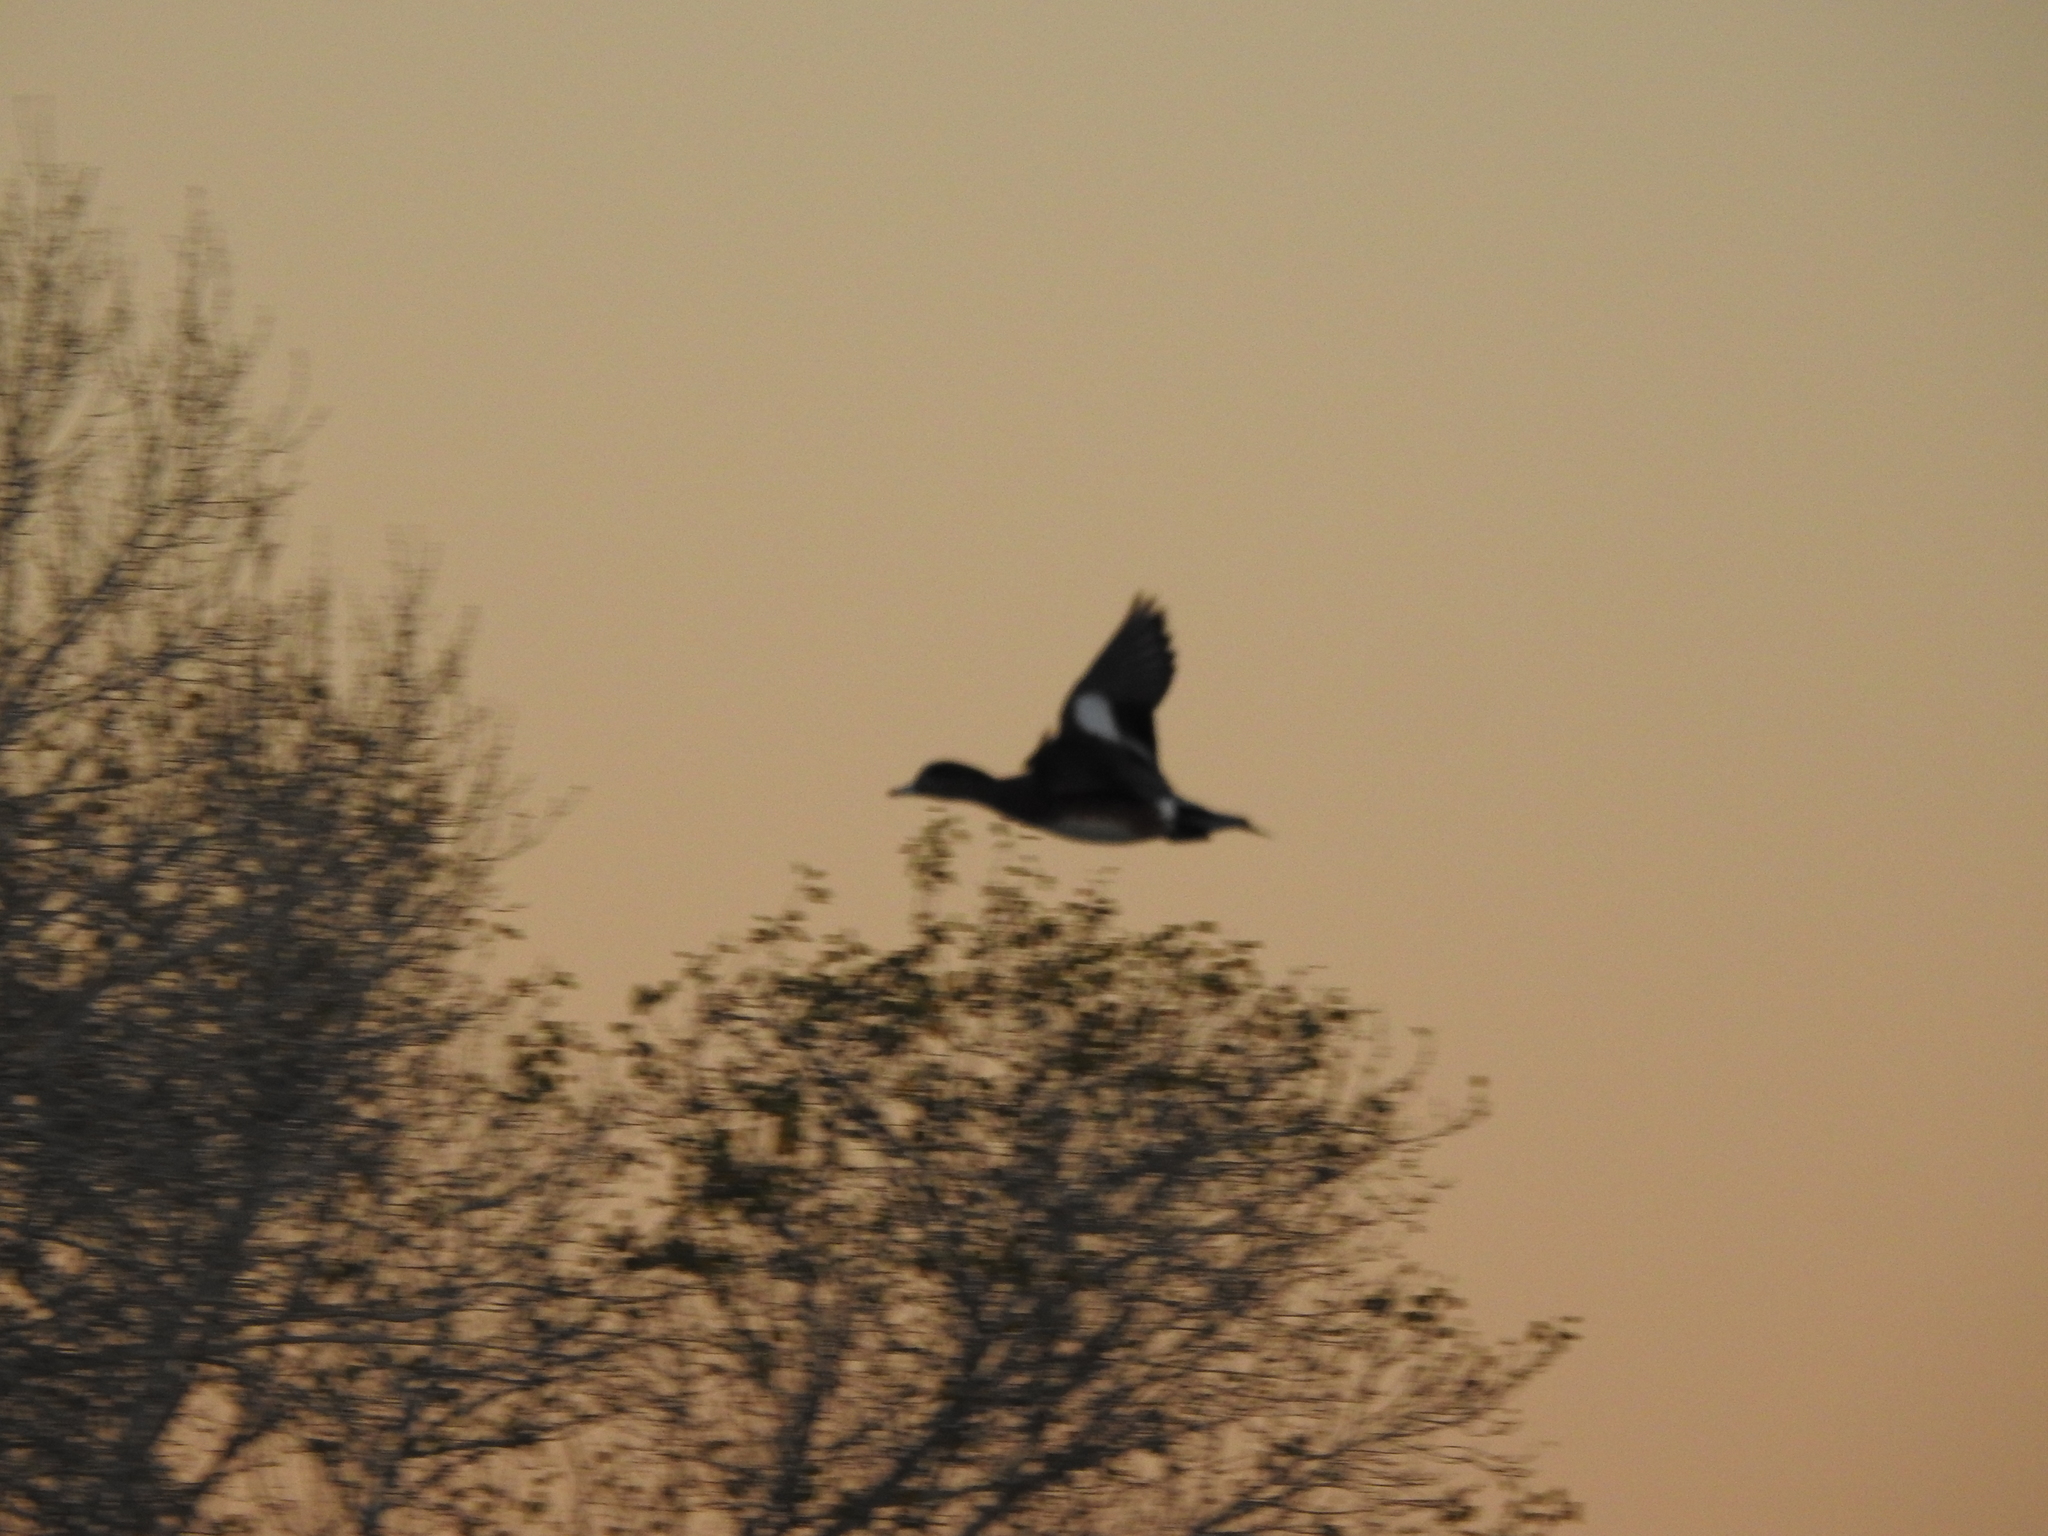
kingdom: Animalia
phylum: Chordata
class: Aves
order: Anseriformes
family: Anatidae
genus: Mareca
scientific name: Mareca americana
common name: American wigeon
